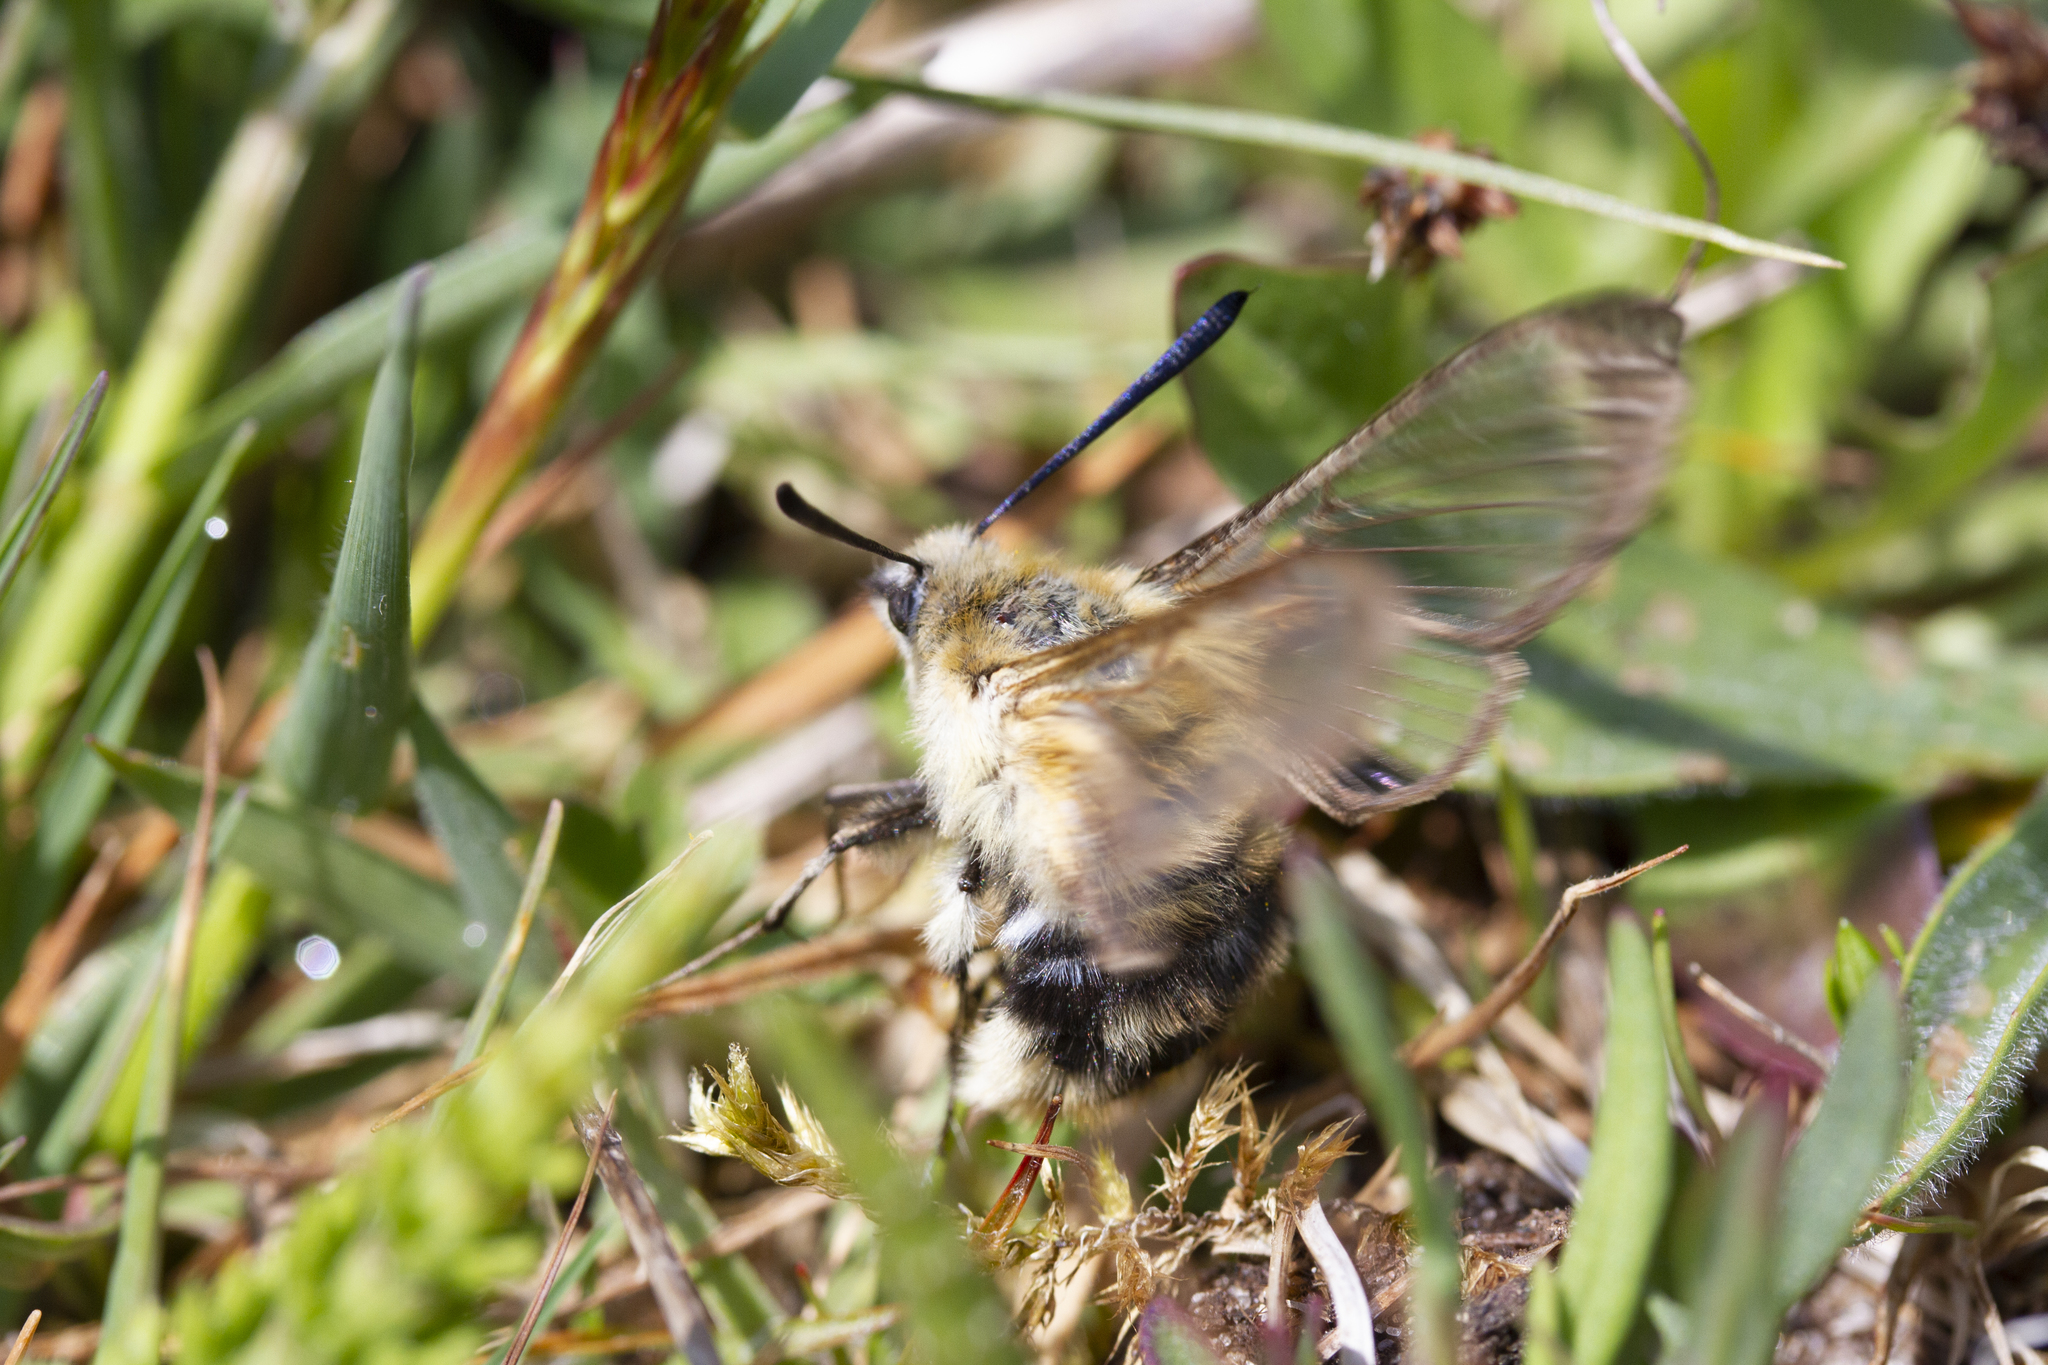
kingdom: Animalia
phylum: Arthropoda
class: Insecta
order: Lepidoptera
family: Sphingidae
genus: Hemaris
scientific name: Hemaris tityus
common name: Narrow-bordered bee hawk-moth
